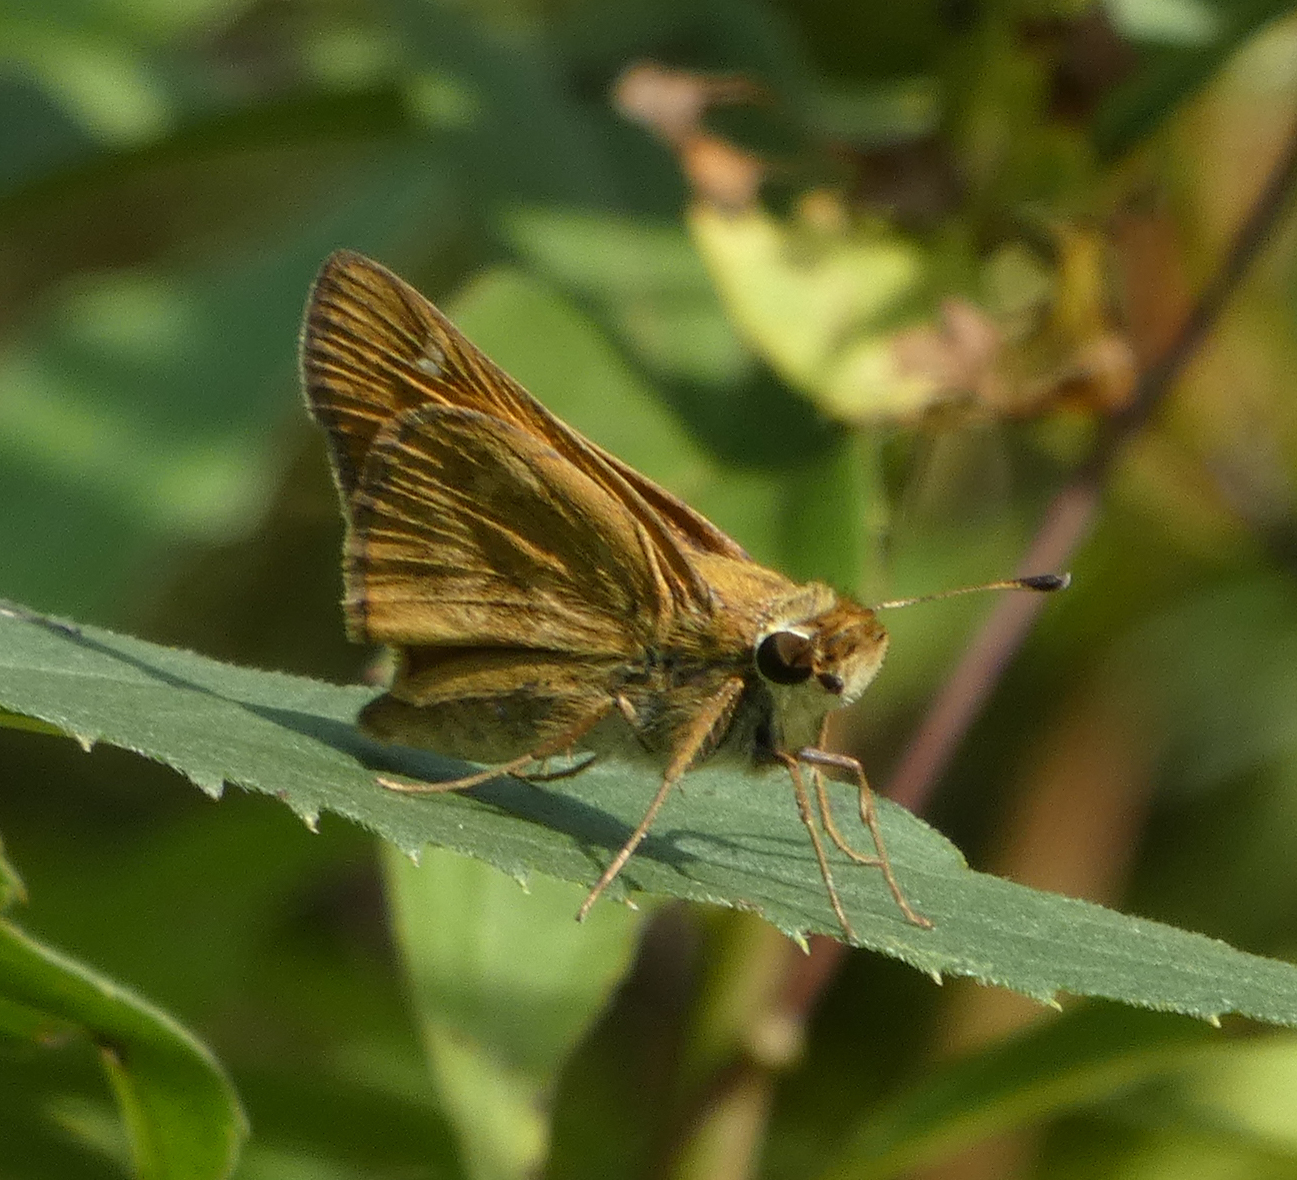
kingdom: Animalia
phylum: Arthropoda
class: Insecta
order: Lepidoptera
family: Hesperiidae
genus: Atalopedes
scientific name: Atalopedes
